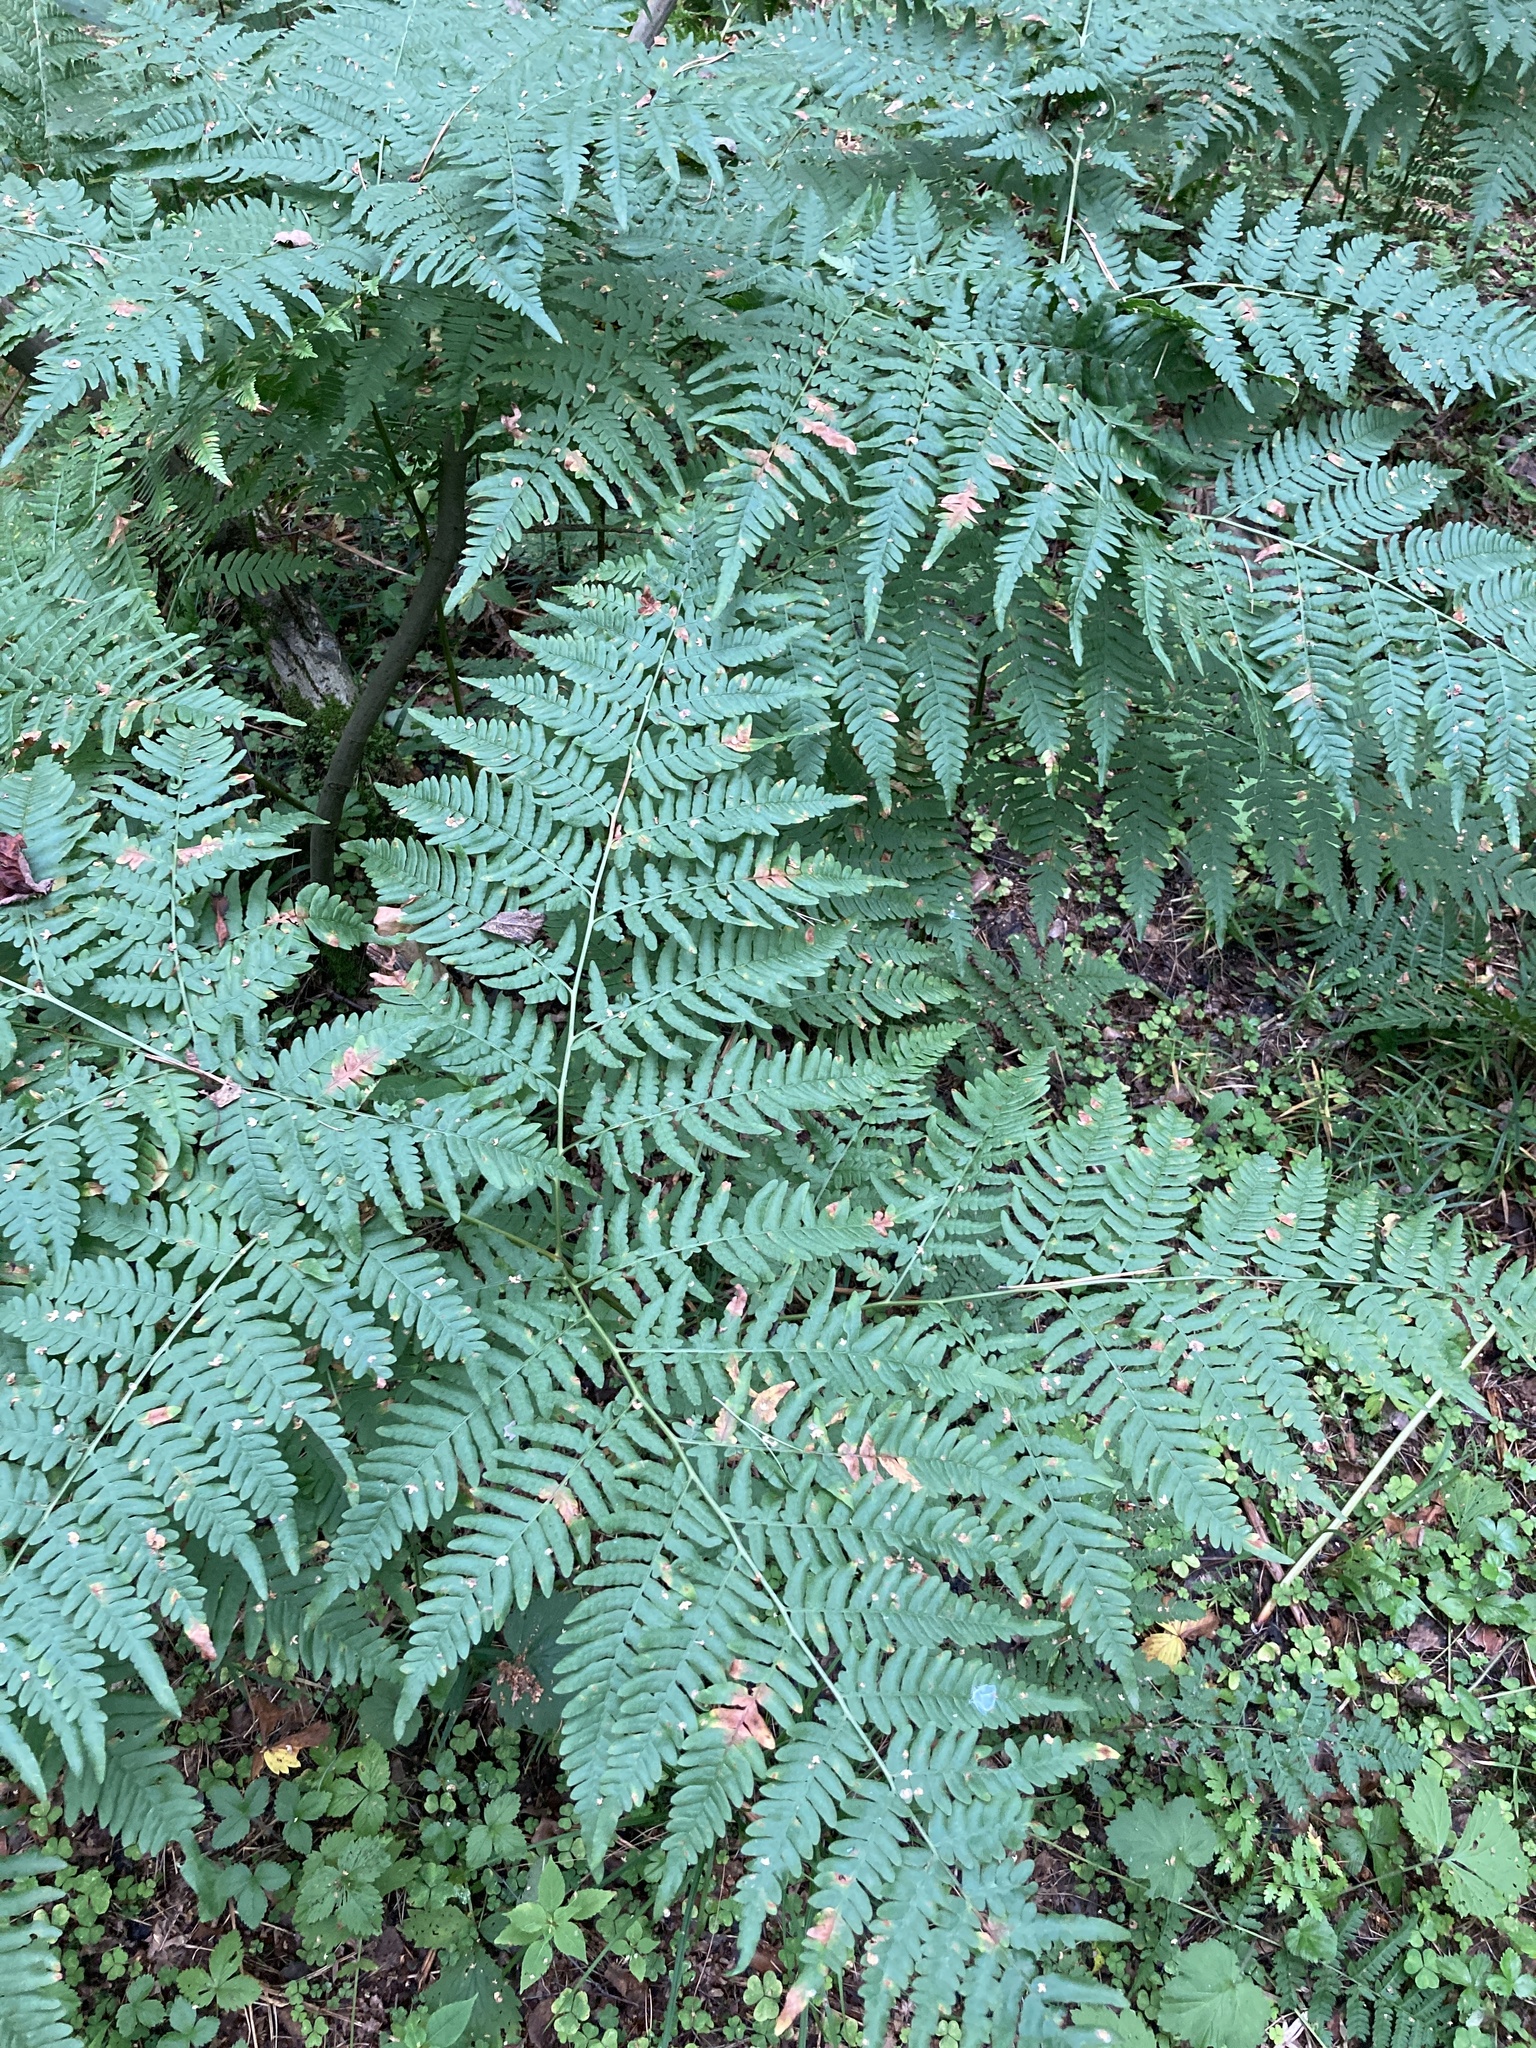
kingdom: Plantae
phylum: Tracheophyta
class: Polypodiopsida
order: Polypodiales
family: Dennstaedtiaceae
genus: Pteridium
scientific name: Pteridium aquilinum
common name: Bracken
